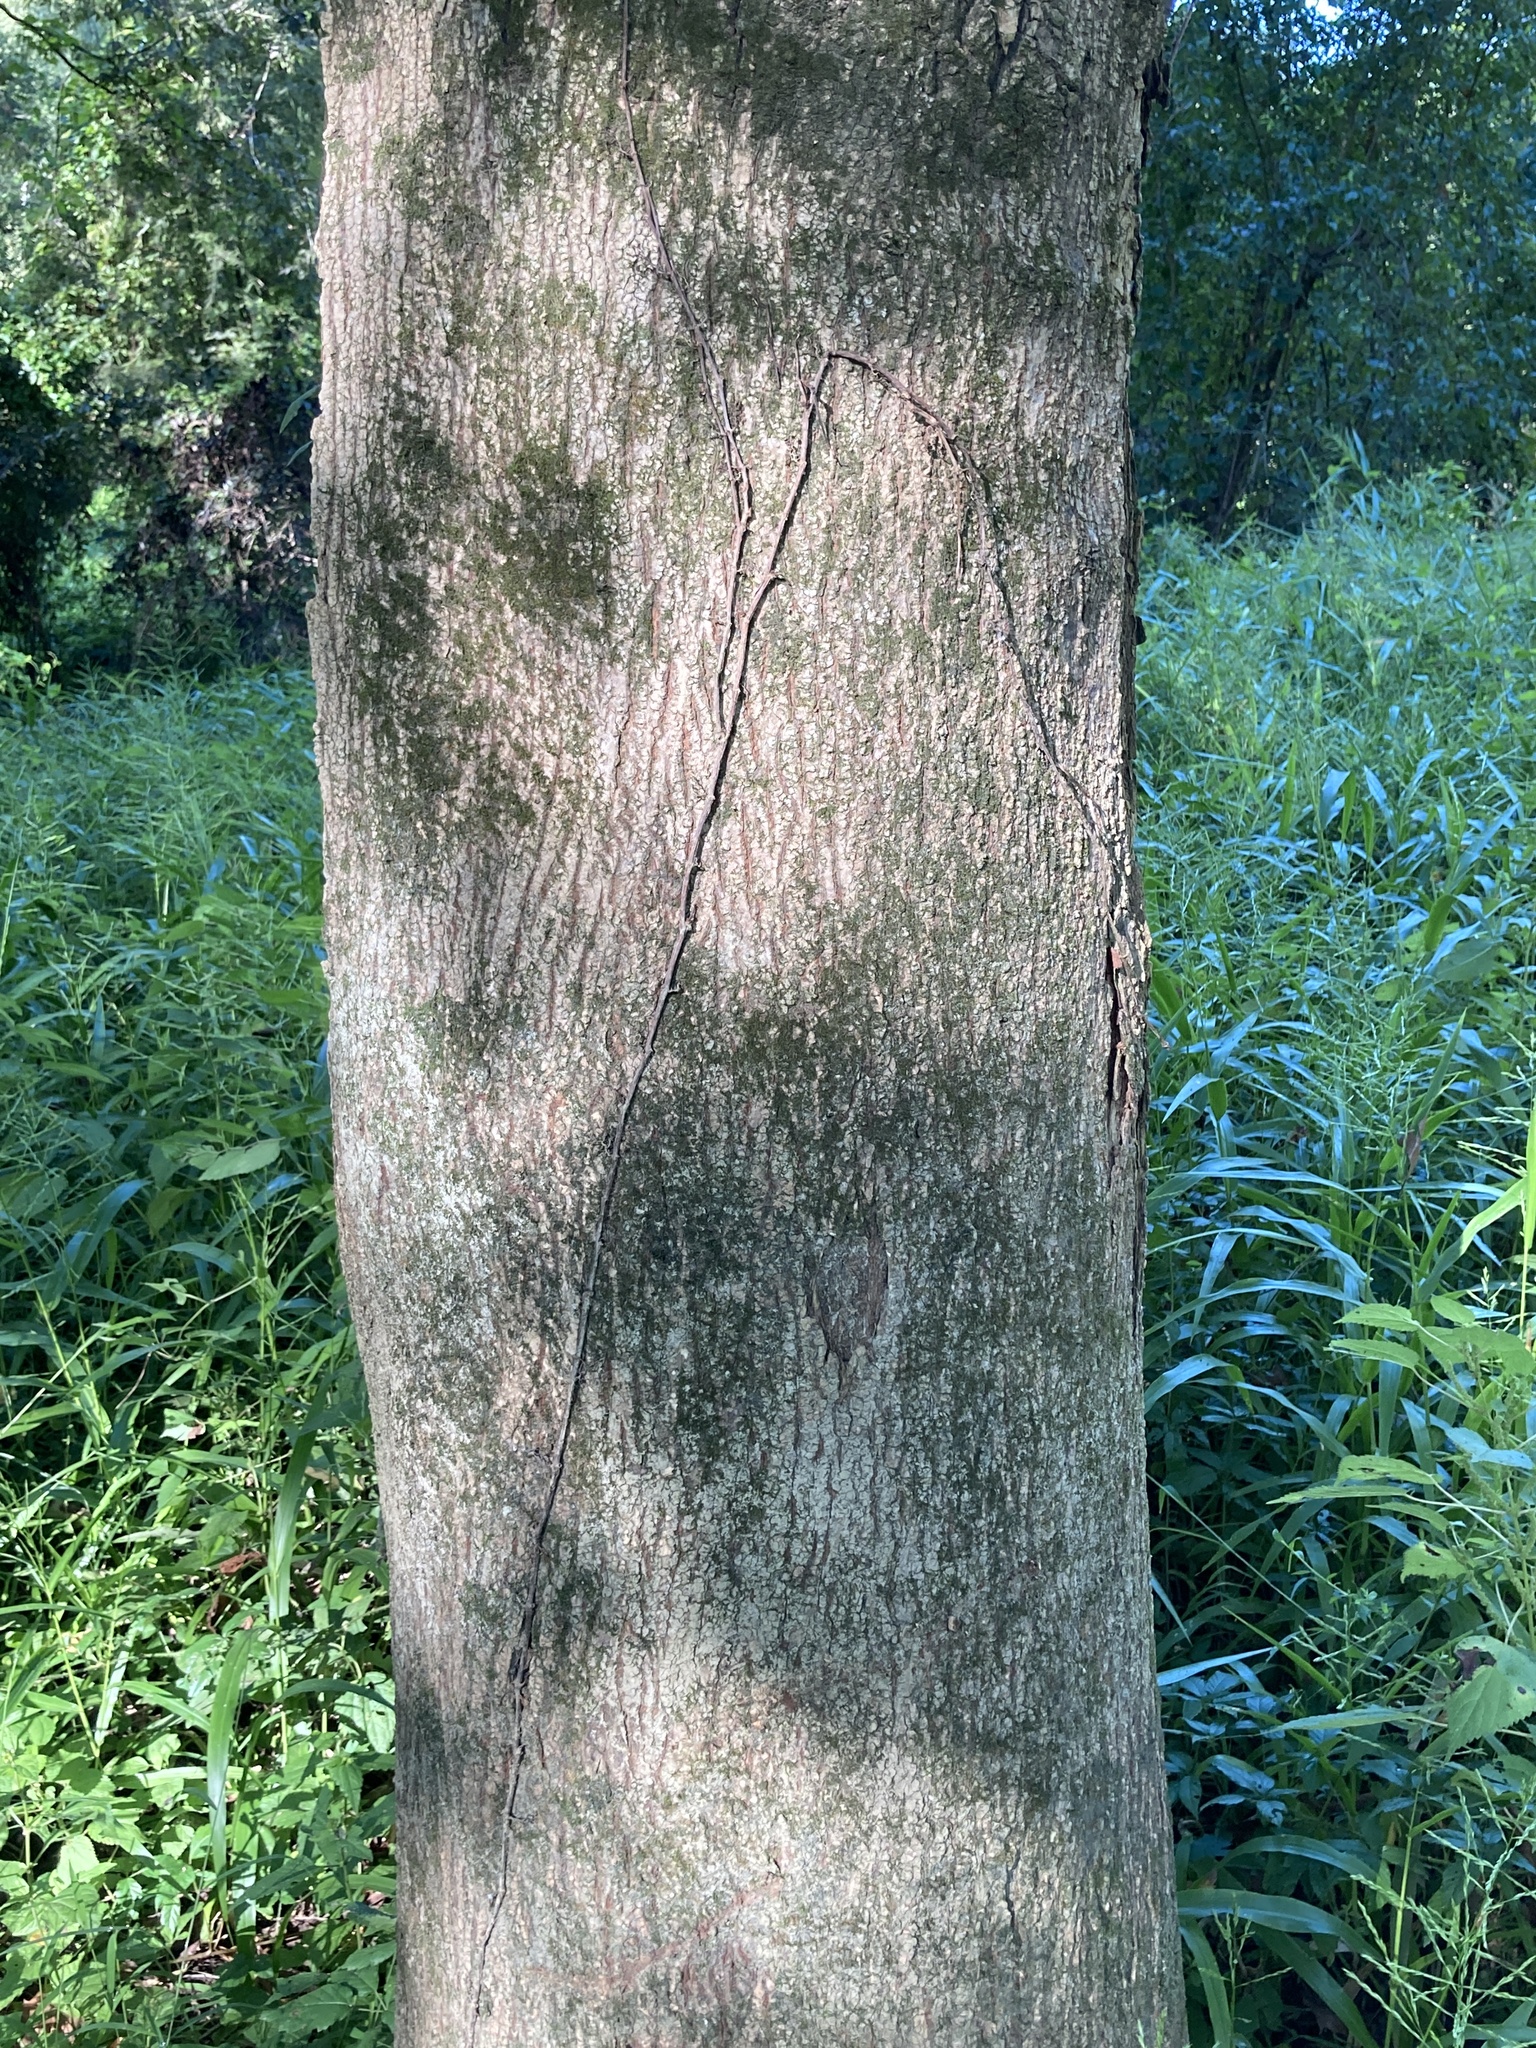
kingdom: Plantae
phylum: Tracheophyta
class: Magnoliopsida
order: Sapindales
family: Sapindaceae
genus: Acer
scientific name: Acer negundo
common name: Ashleaf maple
